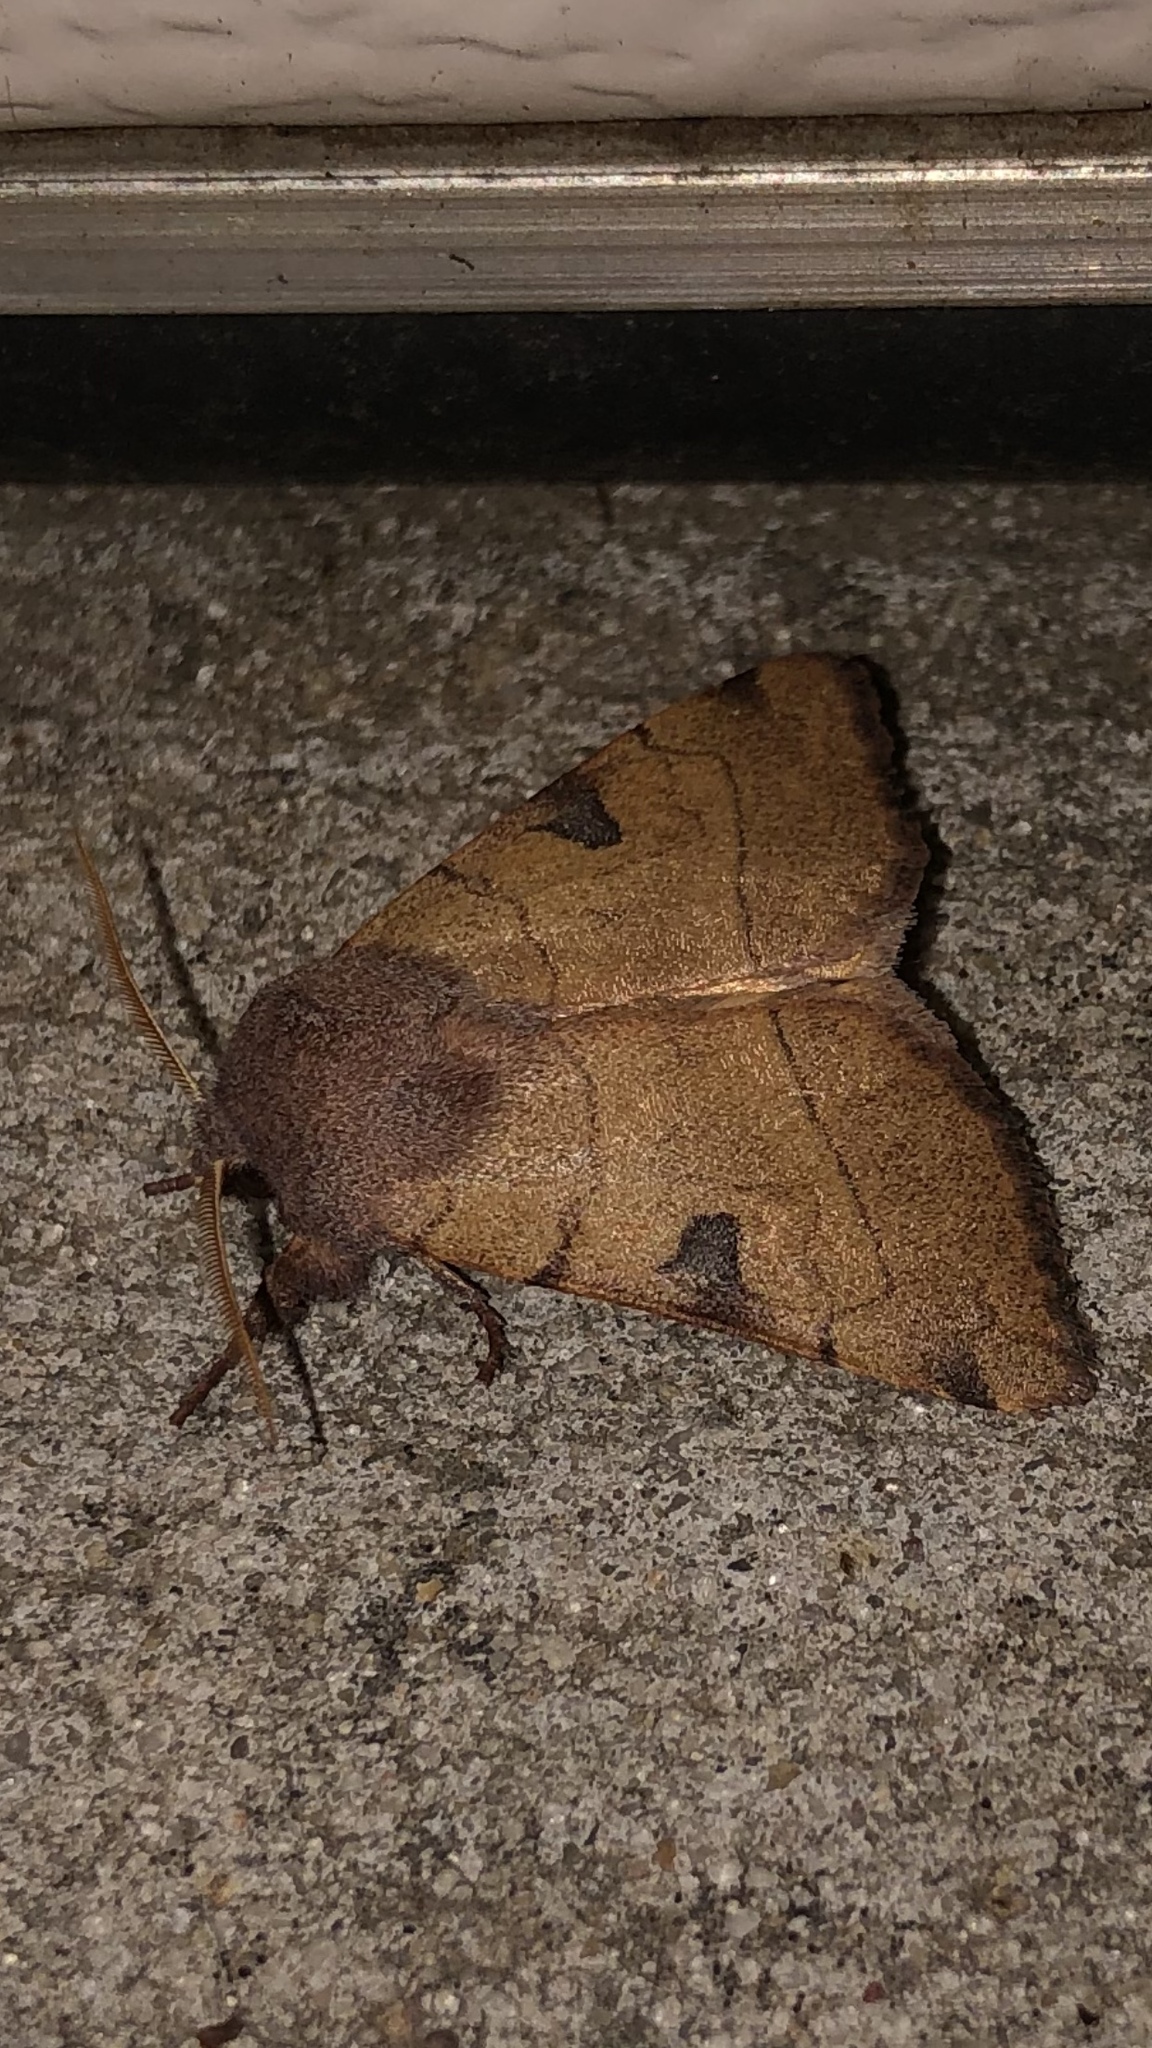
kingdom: Animalia
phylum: Arthropoda
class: Insecta
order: Lepidoptera
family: Noctuidae
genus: Choephora
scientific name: Choephora fungorum
